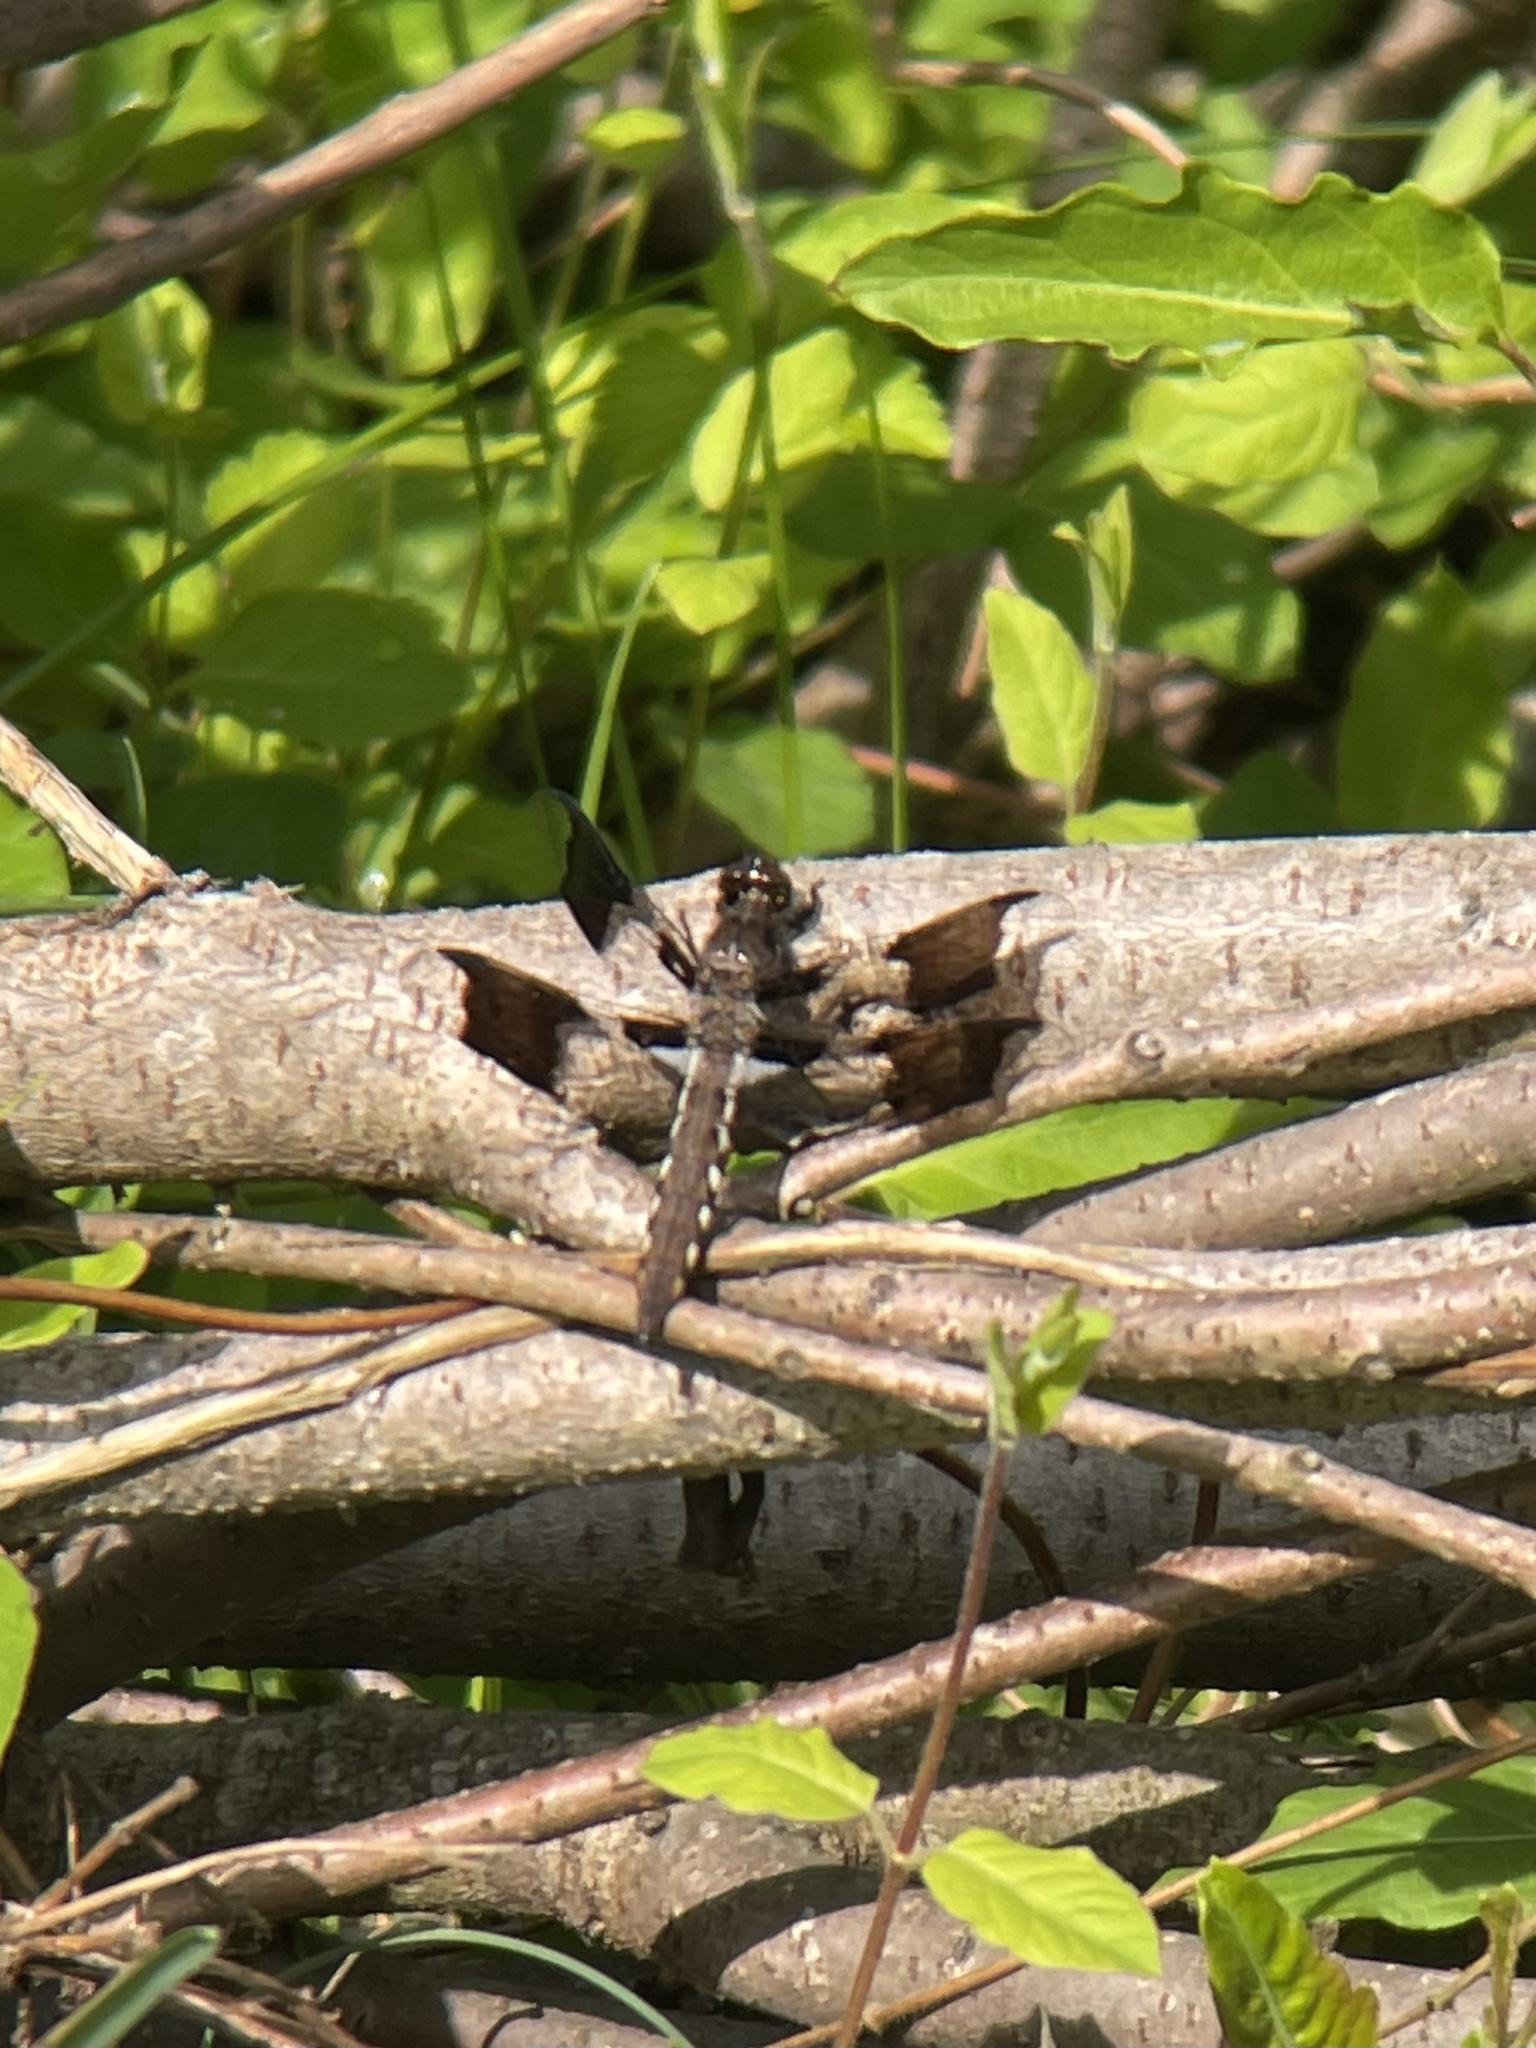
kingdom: Animalia
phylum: Arthropoda
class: Insecta
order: Odonata
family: Libellulidae
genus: Plathemis
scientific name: Plathemis lydia
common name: Common whitetail
